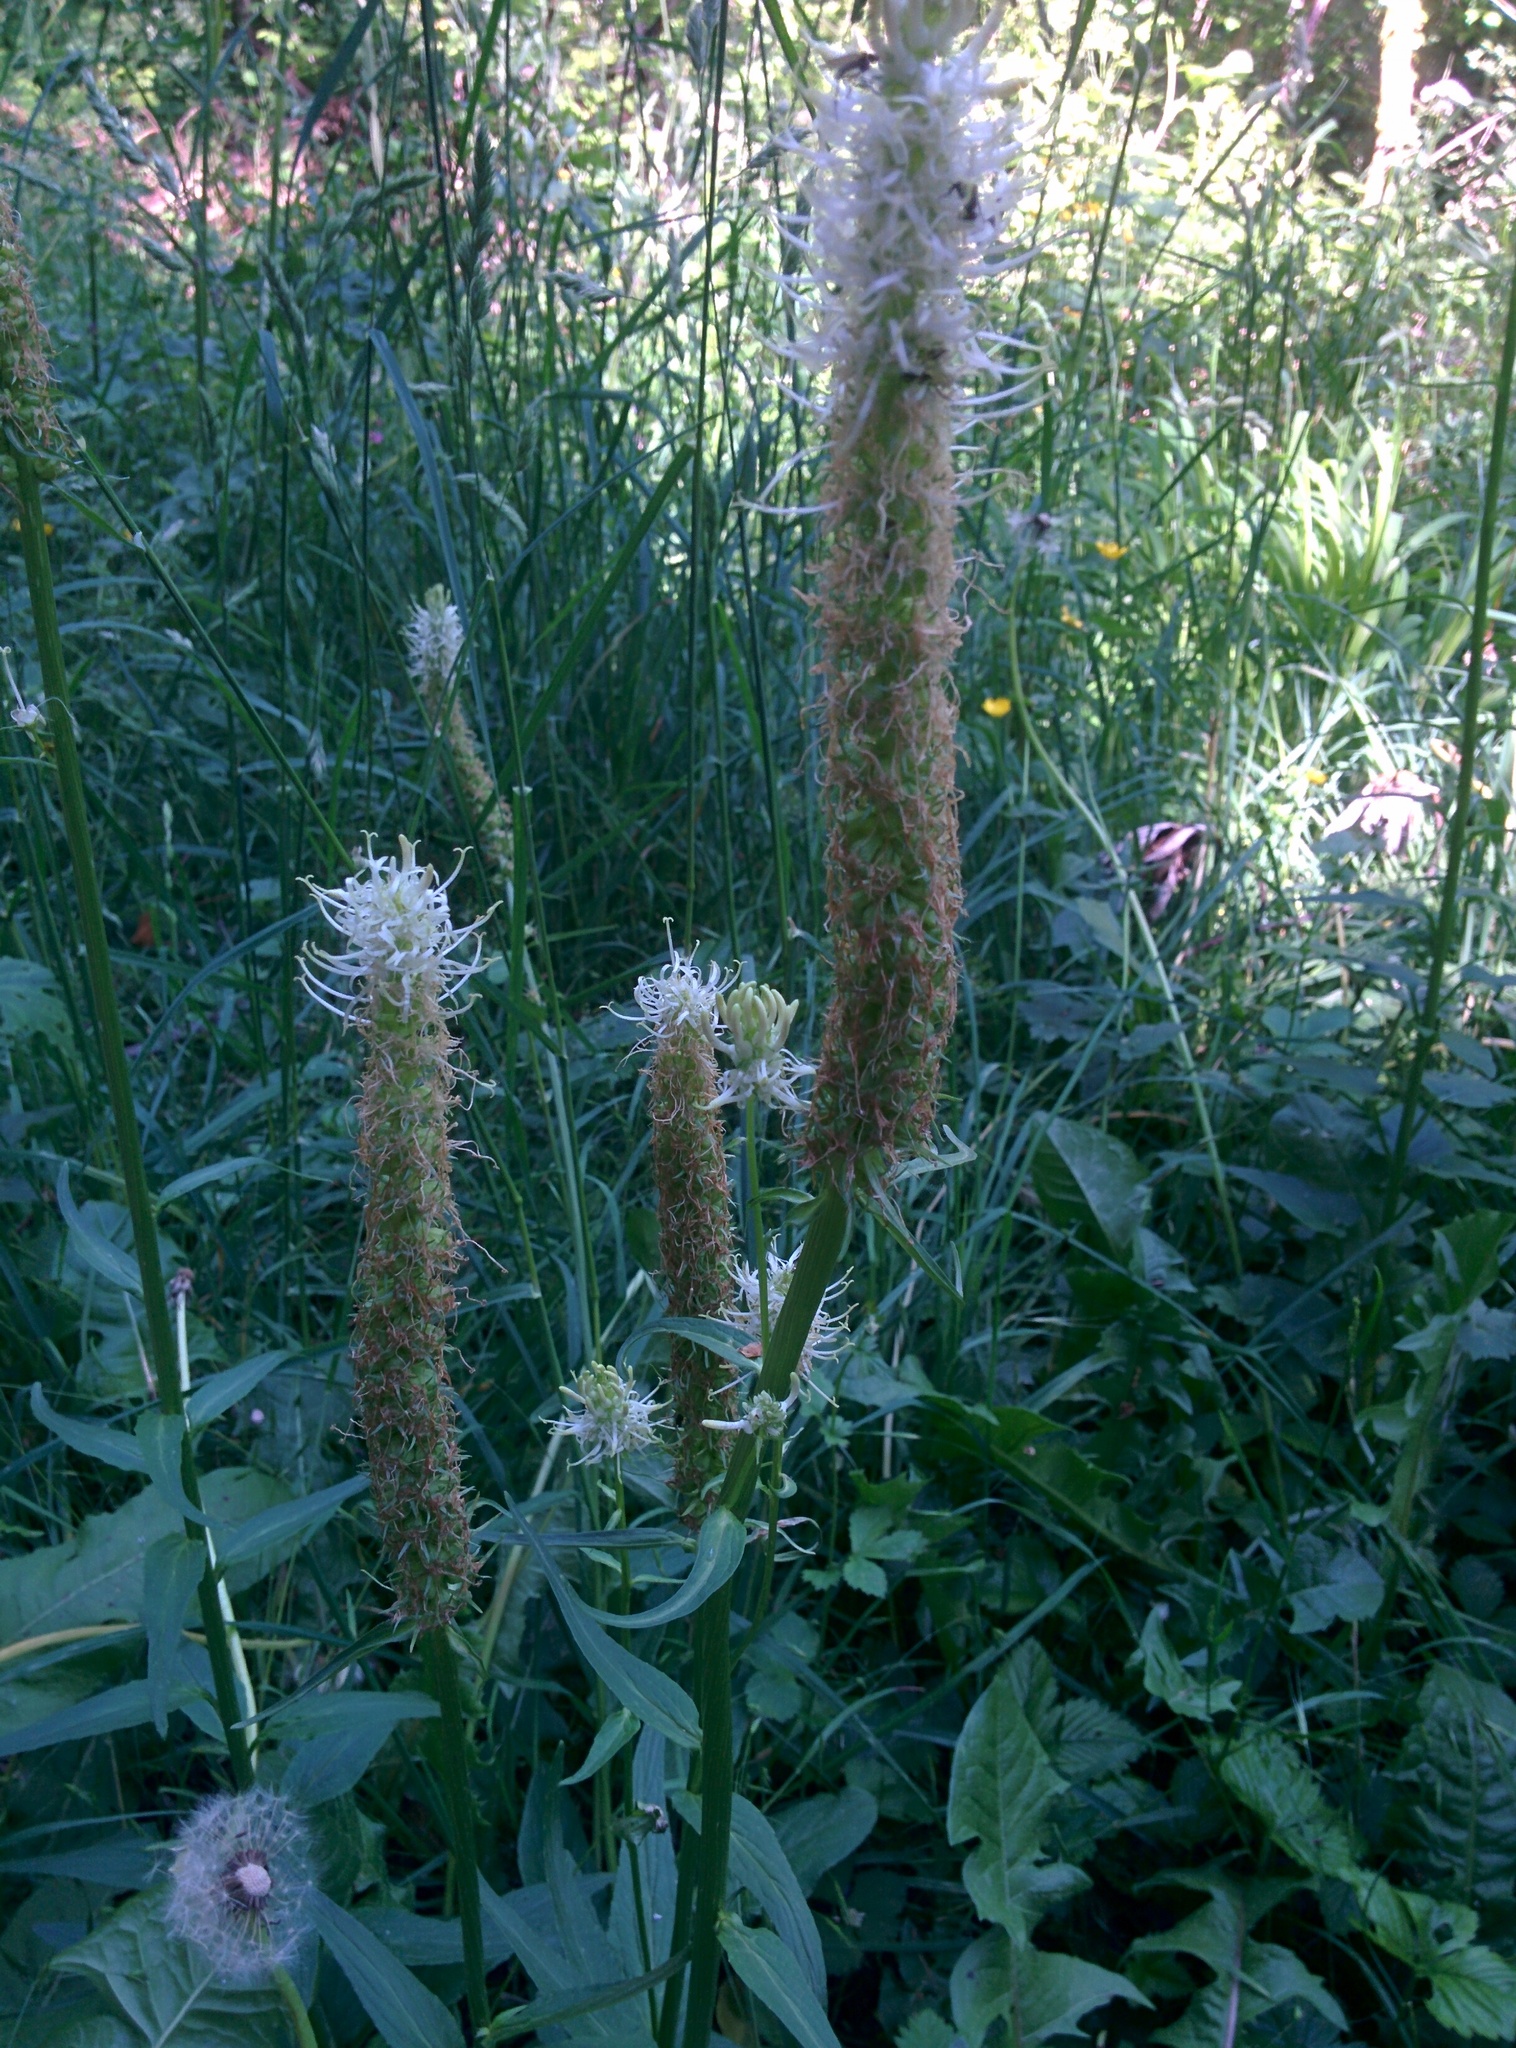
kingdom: Plantae
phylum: Tracheophyta
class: Magnoliopsida
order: Asterales
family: Campanulaceae
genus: Phyteuma
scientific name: Phyteuma spicatum
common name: Spiked rampion
